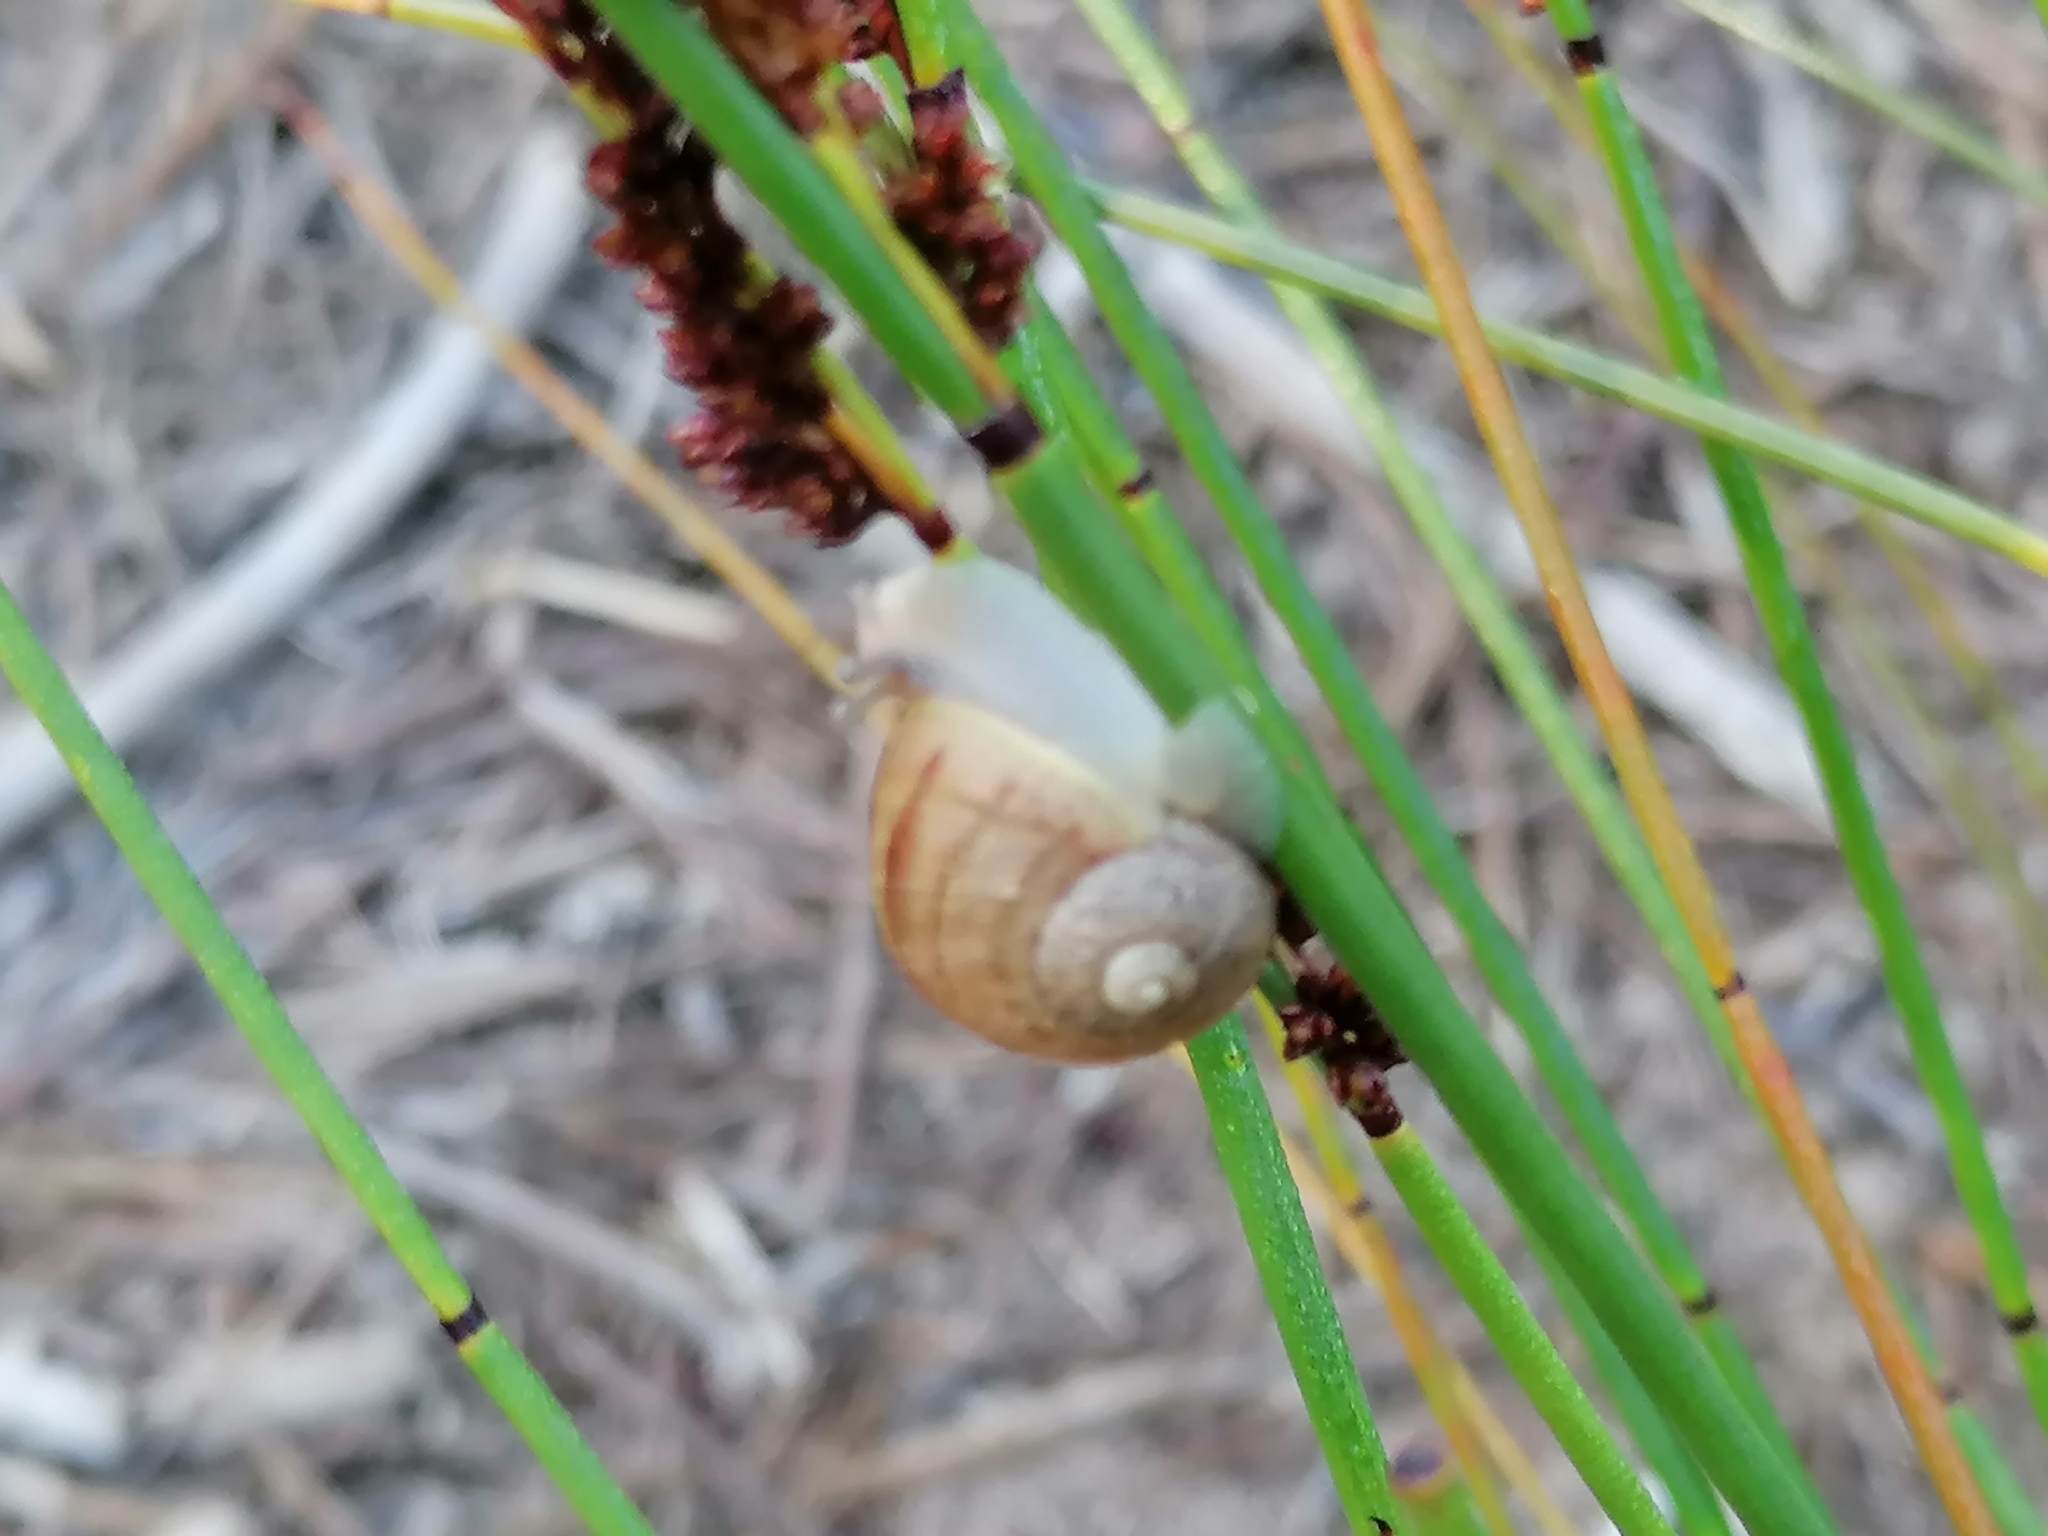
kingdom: Animalia
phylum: Mollusca
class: Gastropoda
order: Stylommatophora
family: Helicidae
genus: Cornu
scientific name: Cornu aspersum
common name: Brown garden snail
